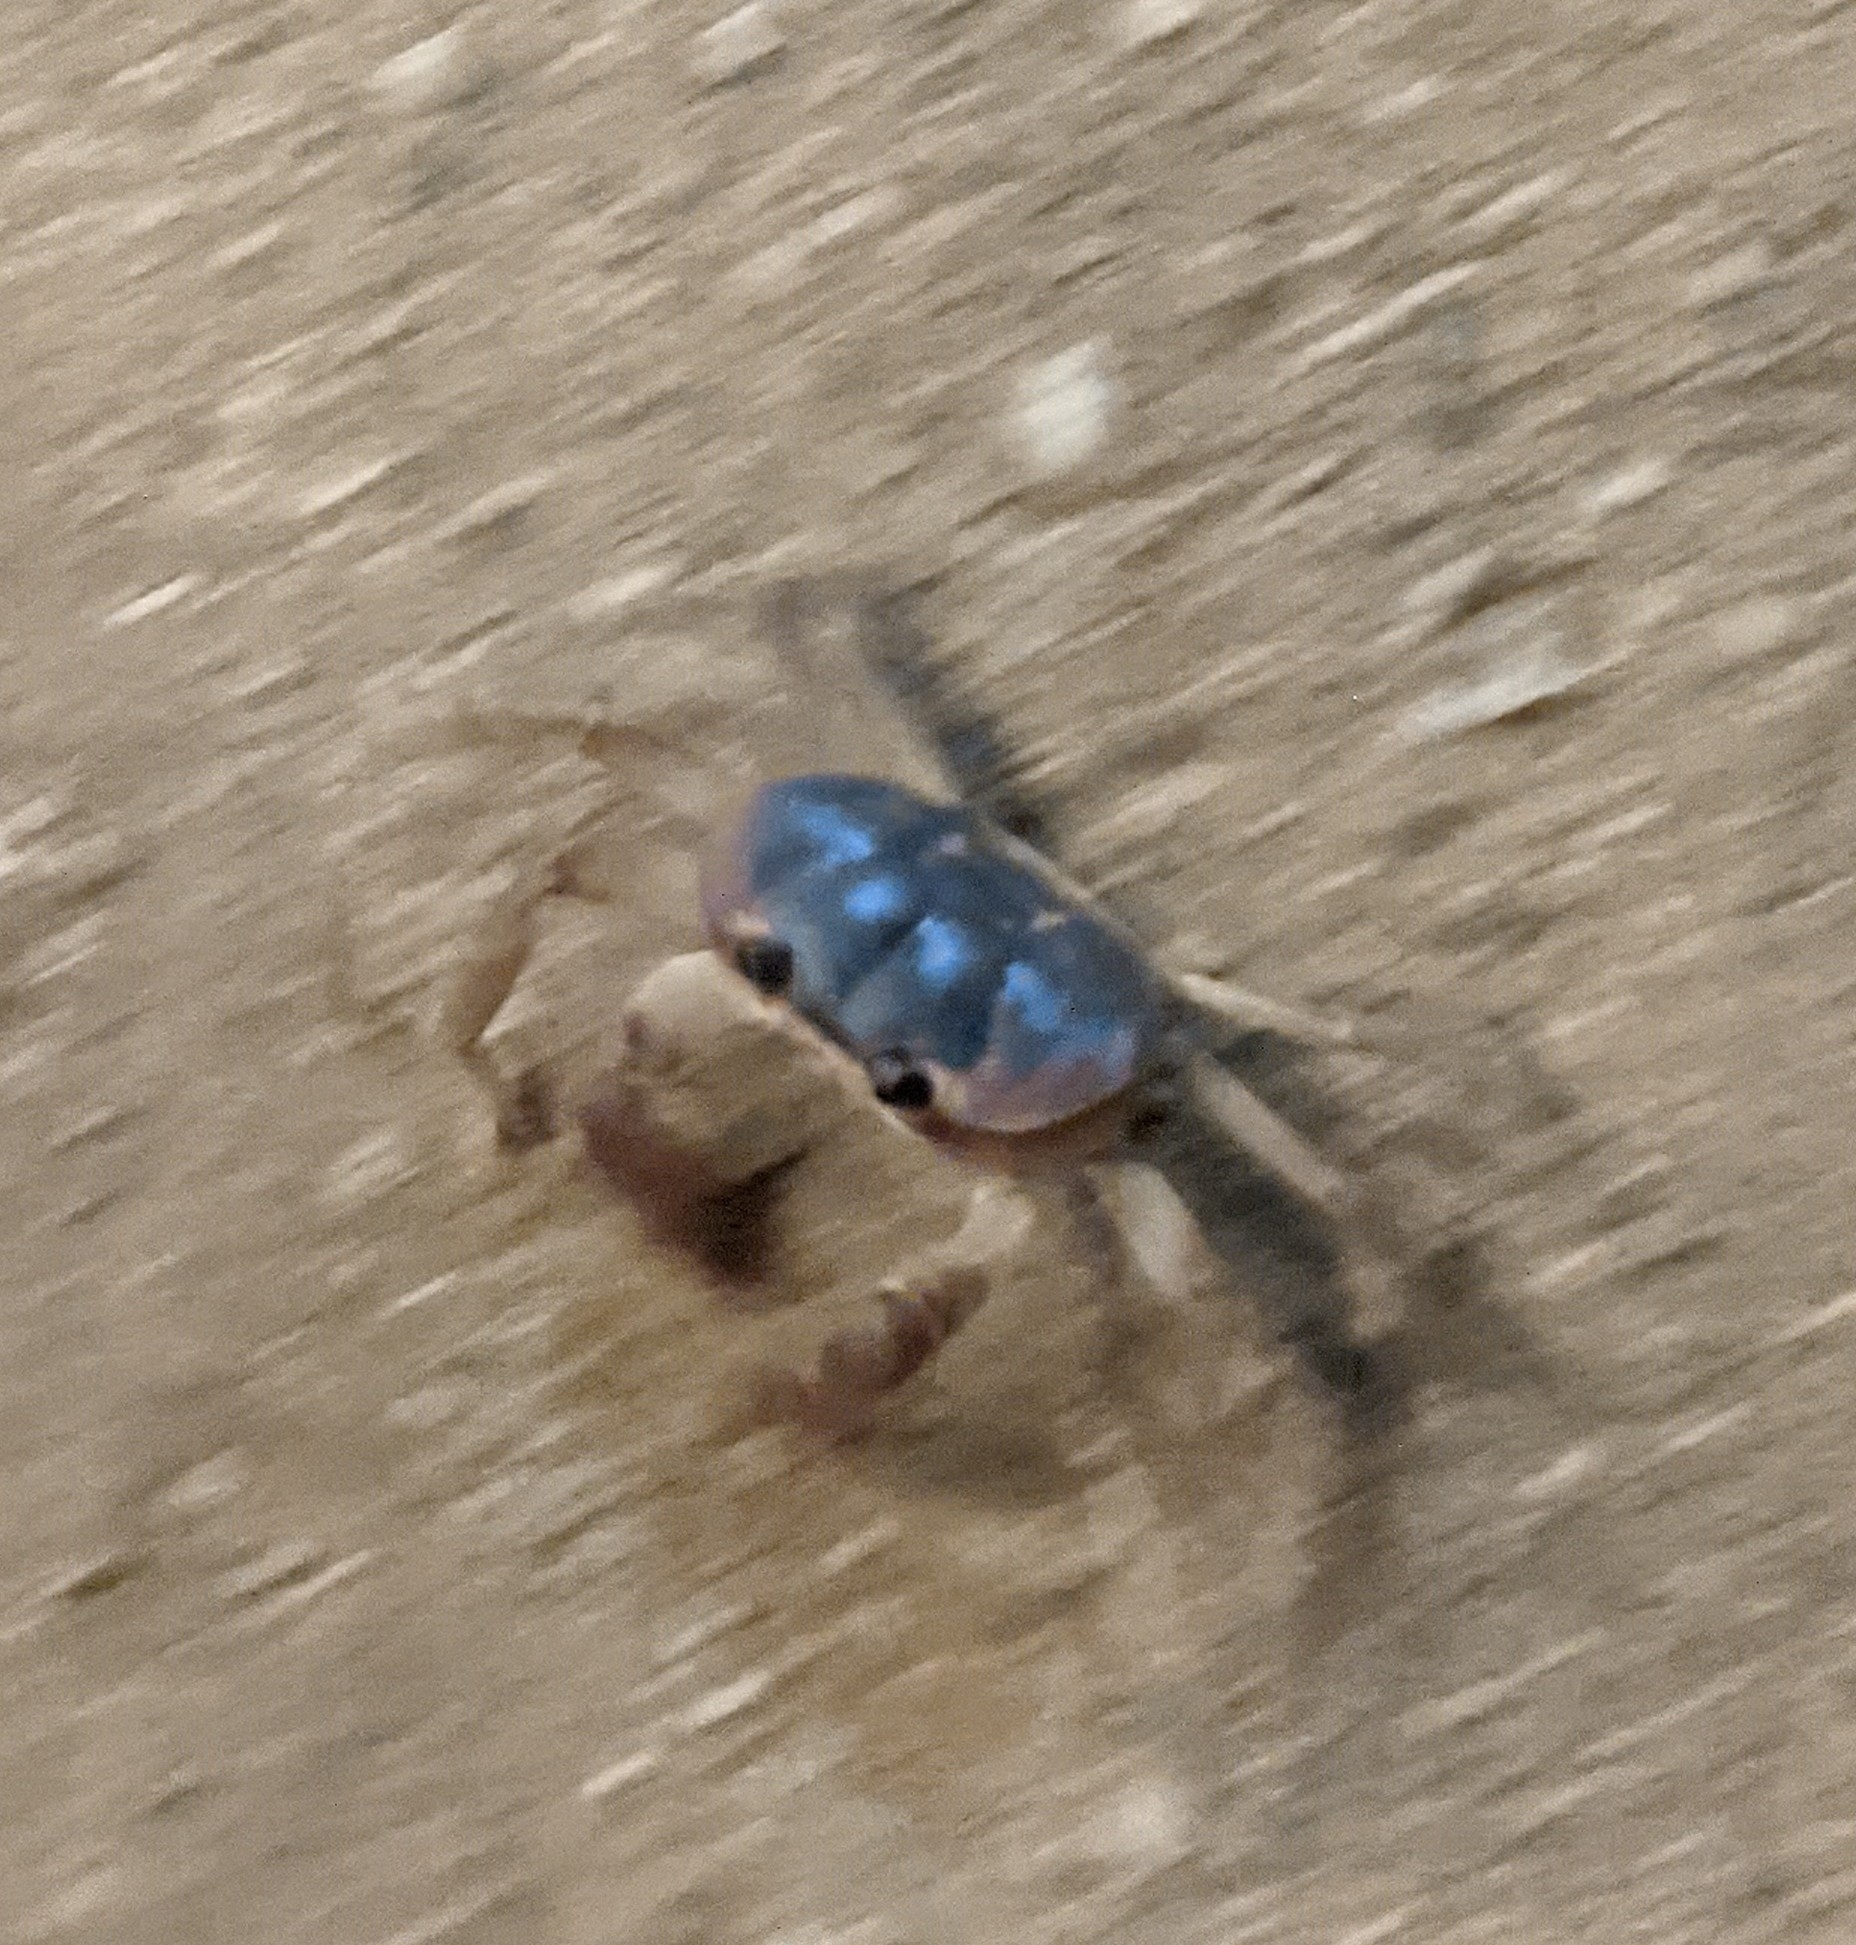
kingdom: Animalia
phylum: Arthropoda
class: Malacostraca
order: Decapoda
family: Gecarcinidae
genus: Gecarcinus
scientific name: Gecarcinus lateralis
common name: Bermuda land crab
